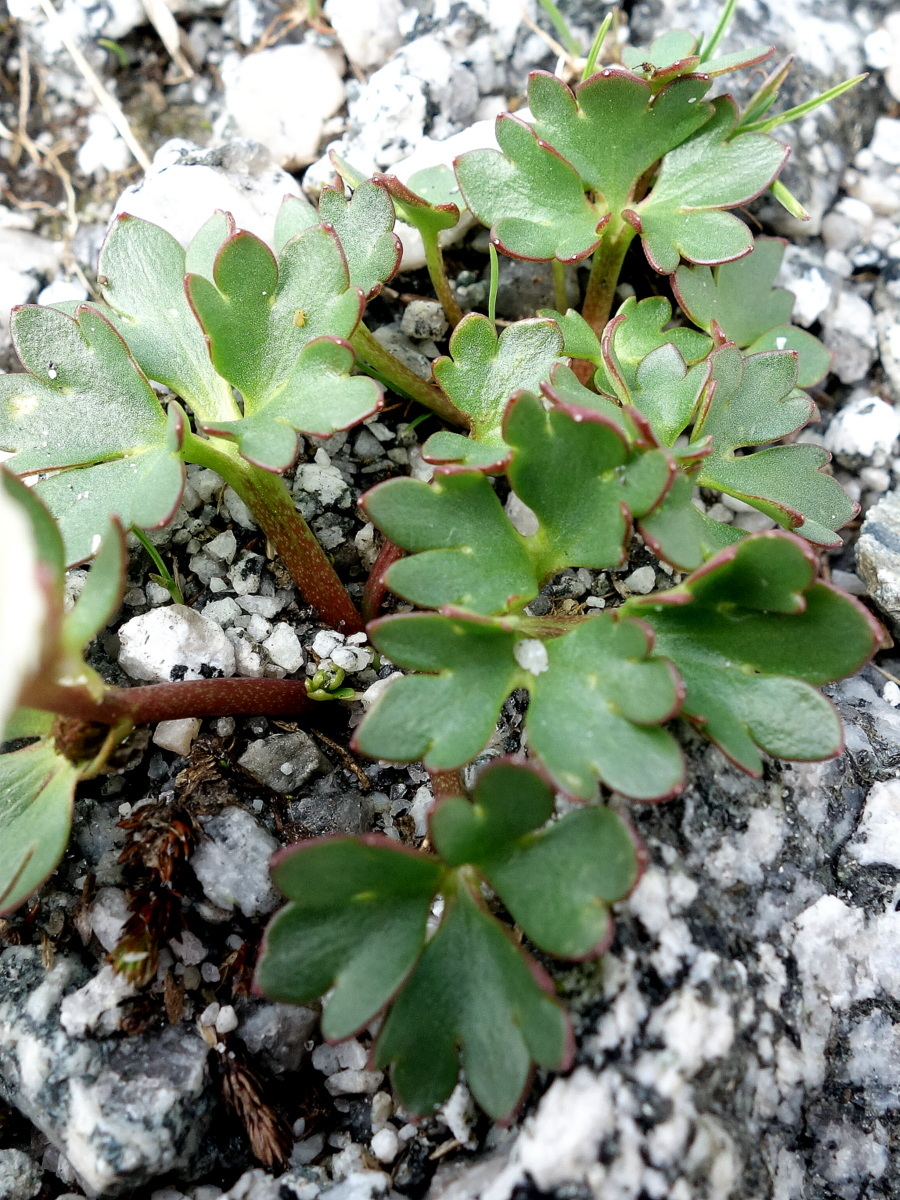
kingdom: Plantae
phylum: Tracheophyta
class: Magnoliopsida
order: Ranunculales
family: Ranunculaceae
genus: Ranunculus
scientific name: Ranunculus glacialis
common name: Glacier buttercup
